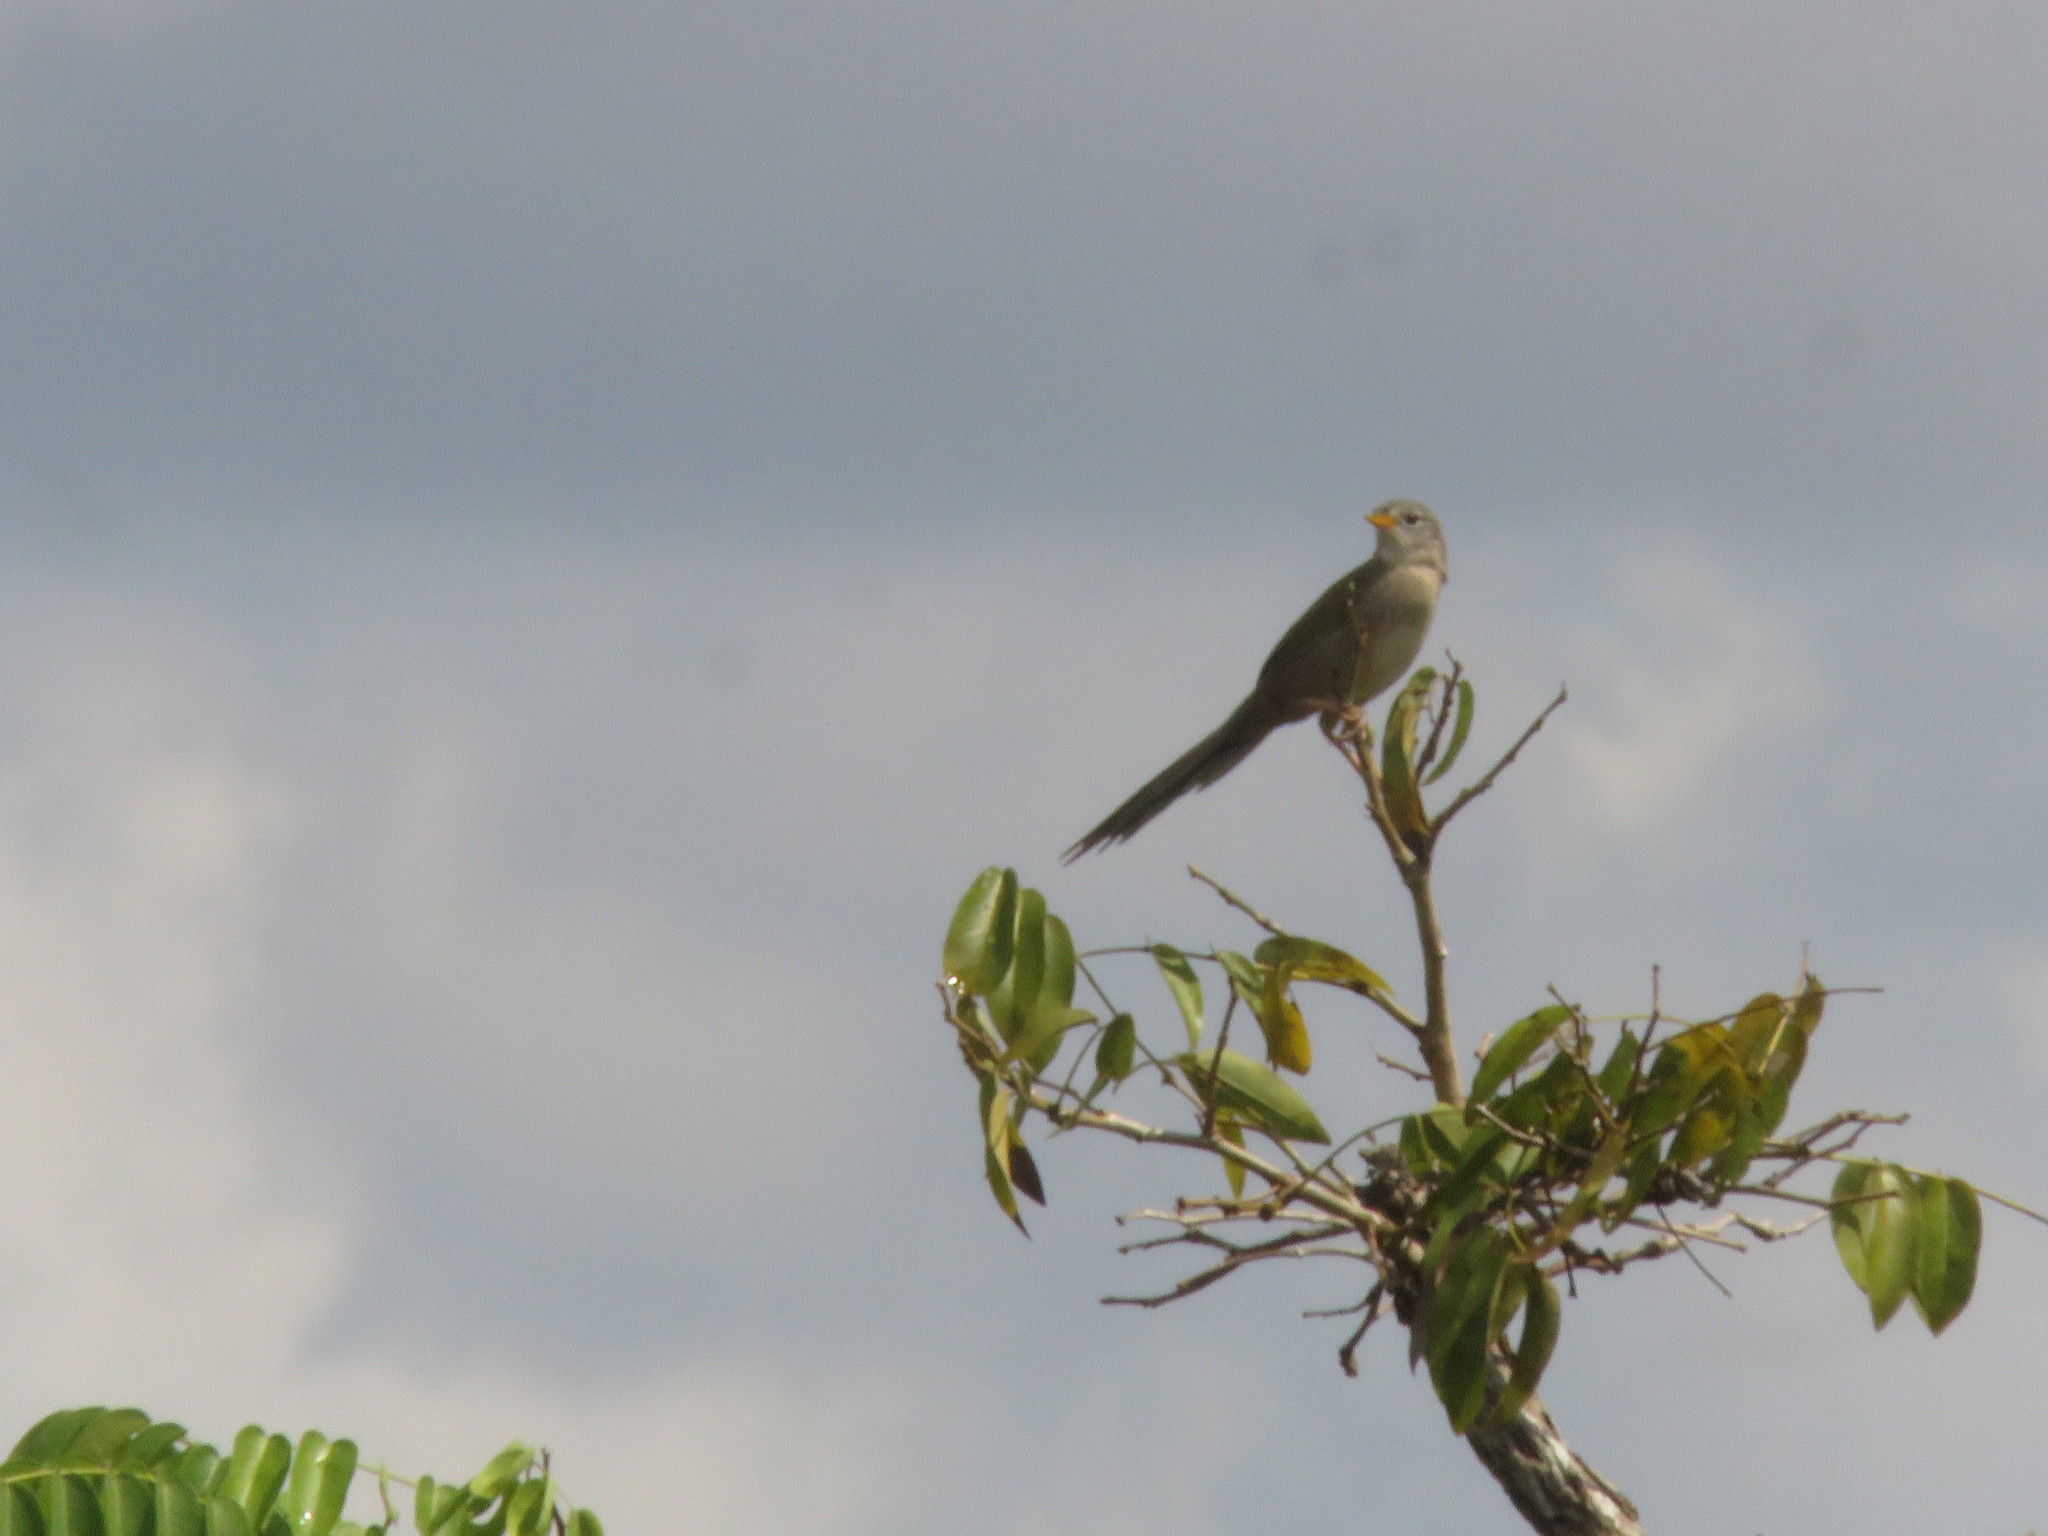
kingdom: Animalia
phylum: Chordata
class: Aves
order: Passeriformes
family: Thraupidae
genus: Emberizoides
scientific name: Emberizoides herbicola
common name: Wedge-tailed grass-finch
